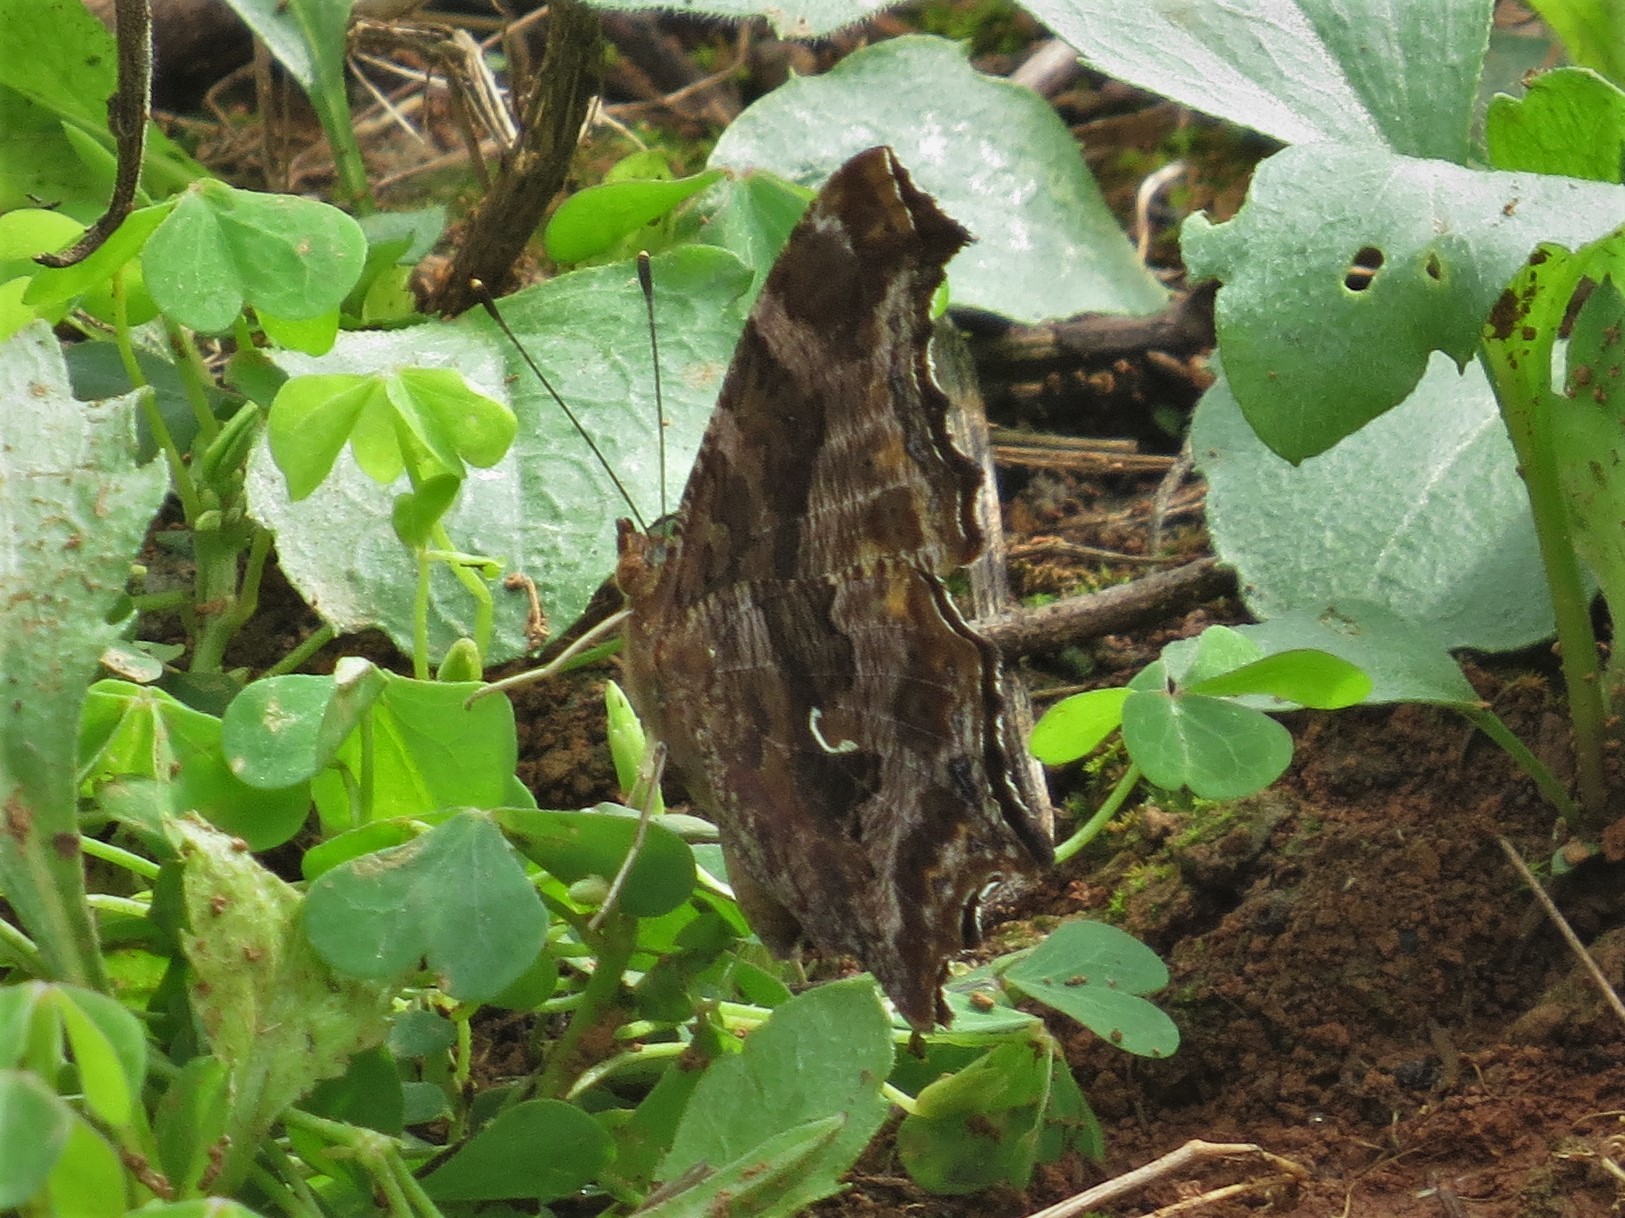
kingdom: Animalia
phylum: Arthropoda
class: Insecta
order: Lepidoptera
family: Nymphalidae
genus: Polygonia
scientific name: Polygonia comma
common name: Eastern comma
